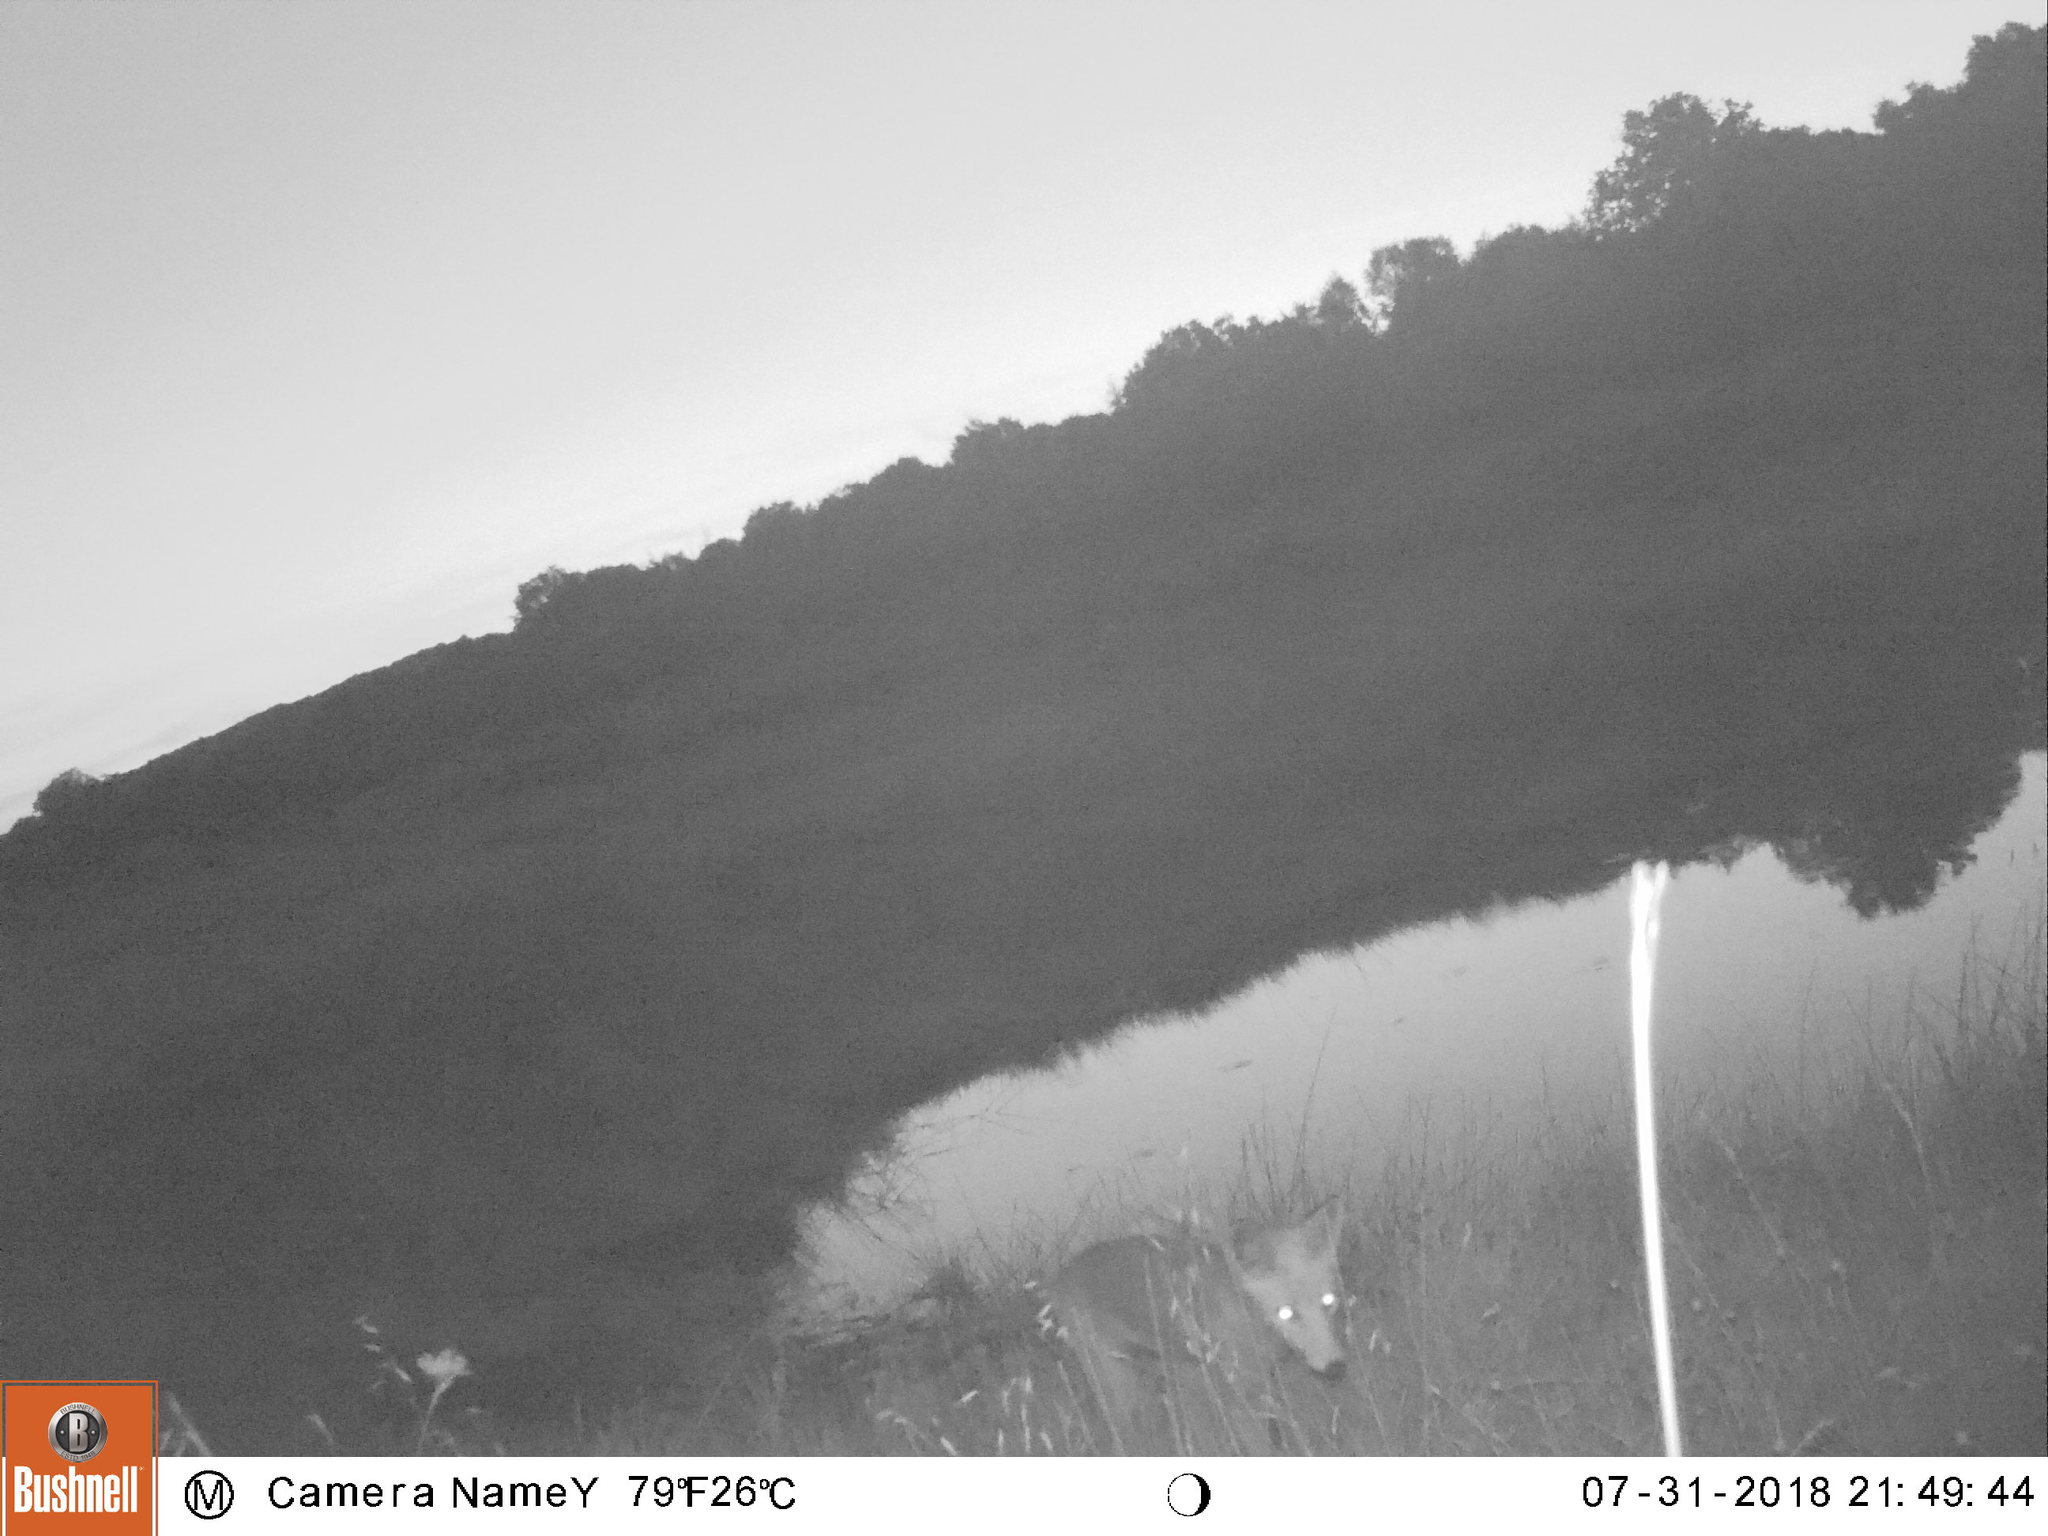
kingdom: Animalia
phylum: Chordata
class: Mammalia
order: Carnivora
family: Canidae
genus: Vulpes
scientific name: Vulpes vulpes
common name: Red fox
